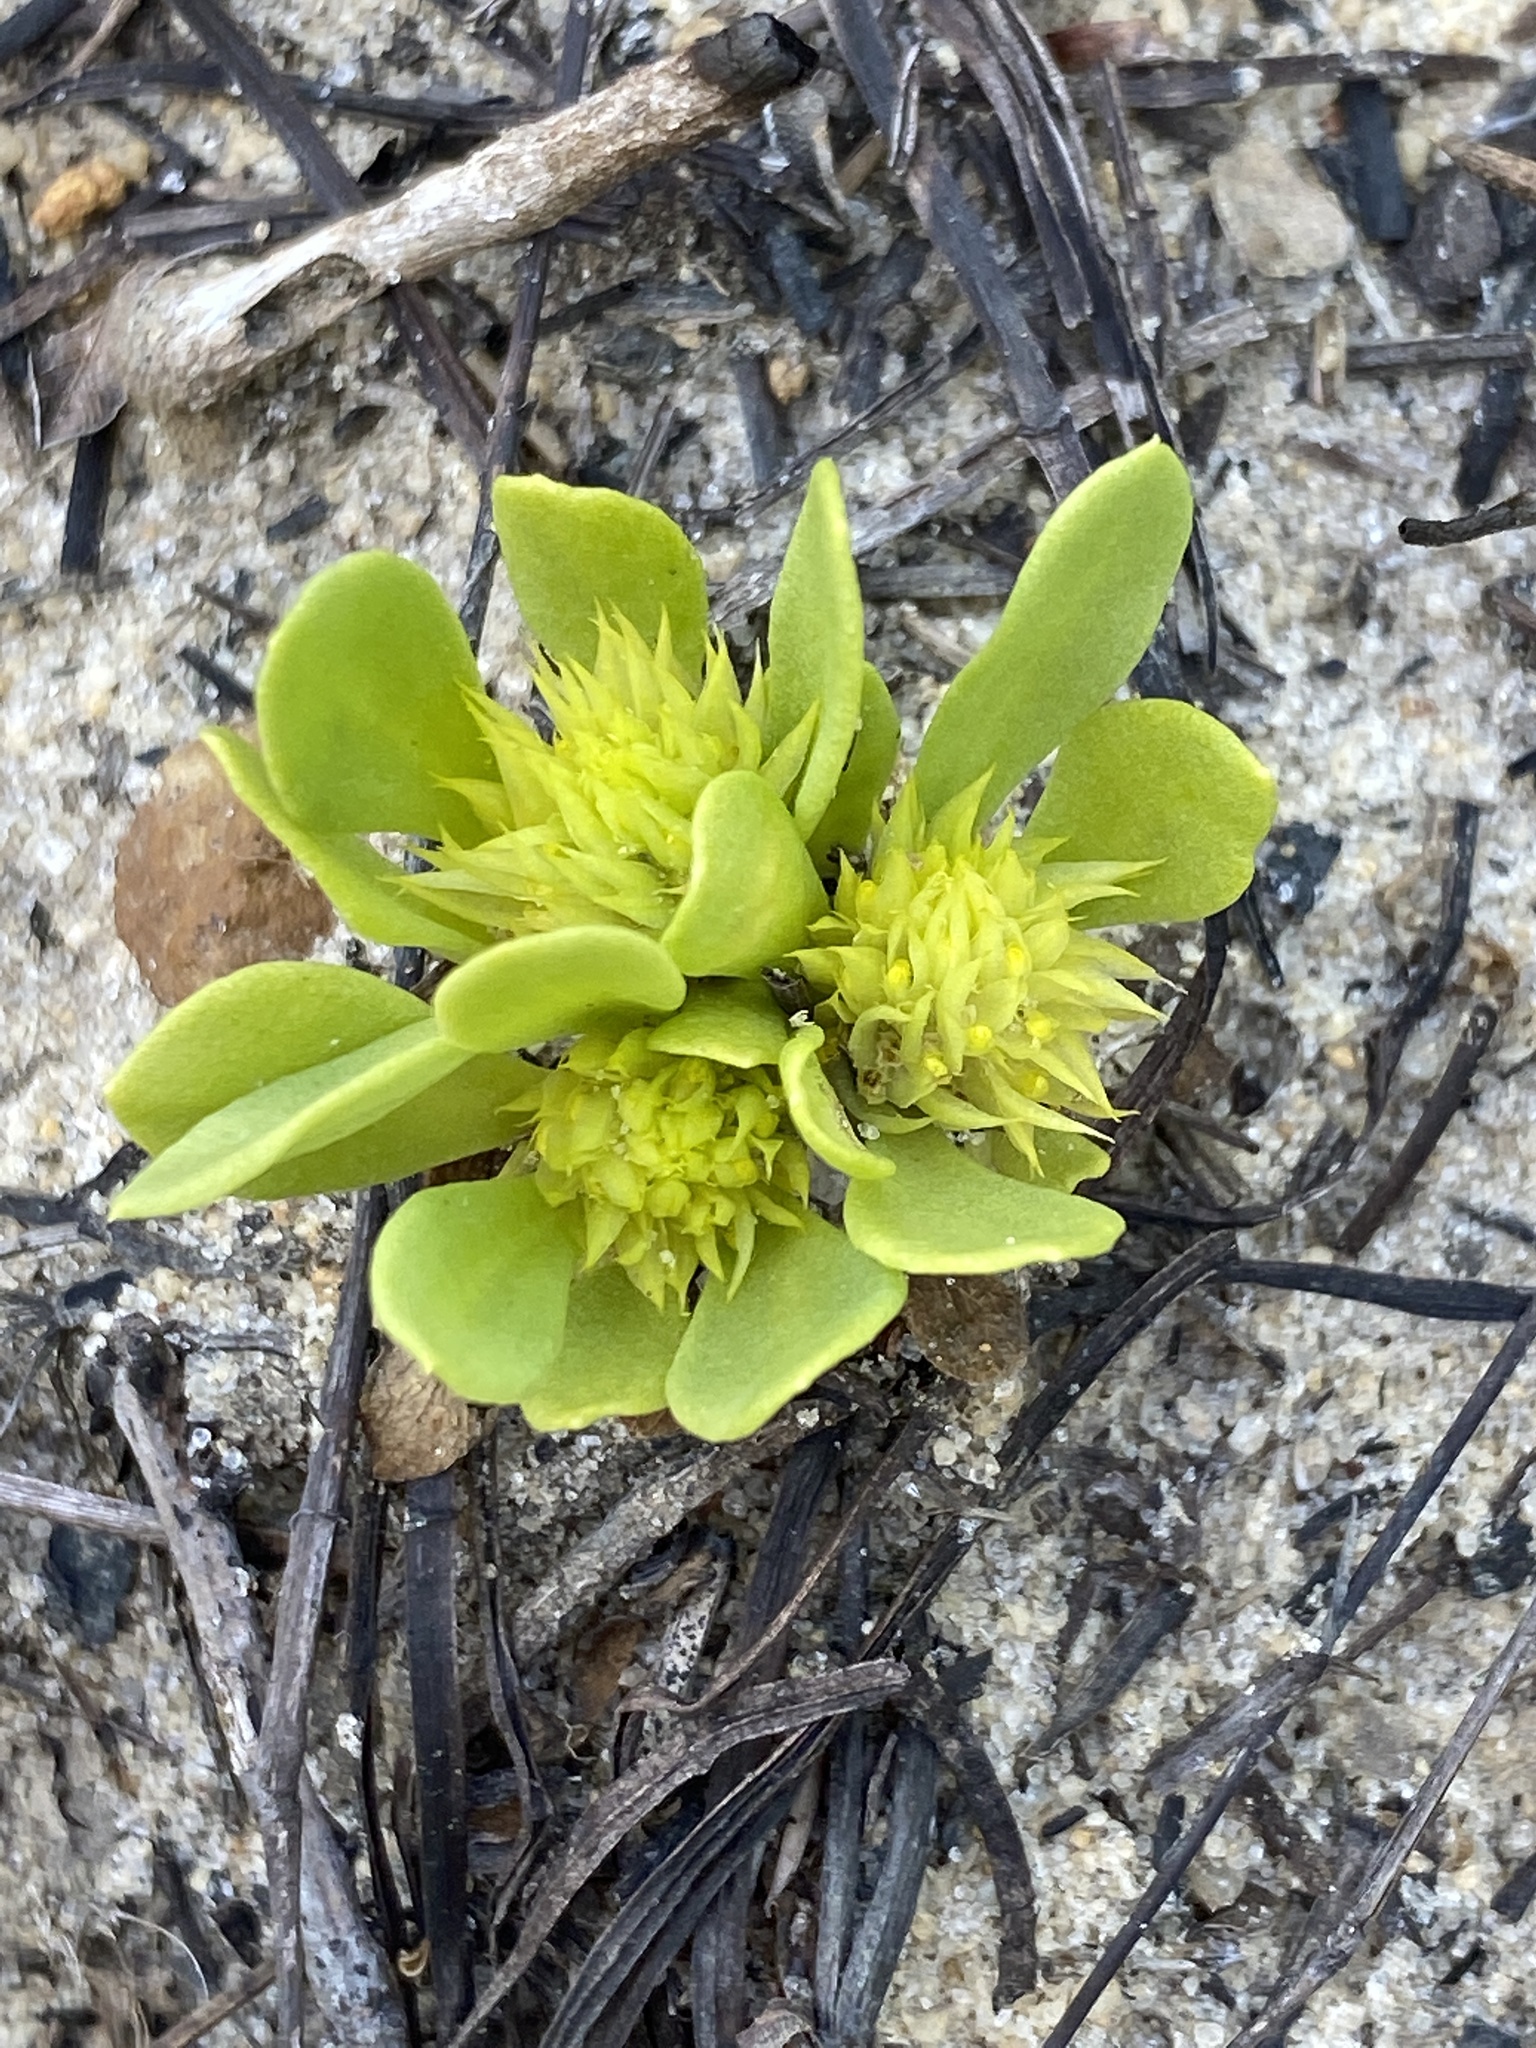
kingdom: Plantae
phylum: Tracheophyta
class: Magnoliopsida
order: Fabales
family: Polygalaceae
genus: Polygala
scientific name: Polygala nana
